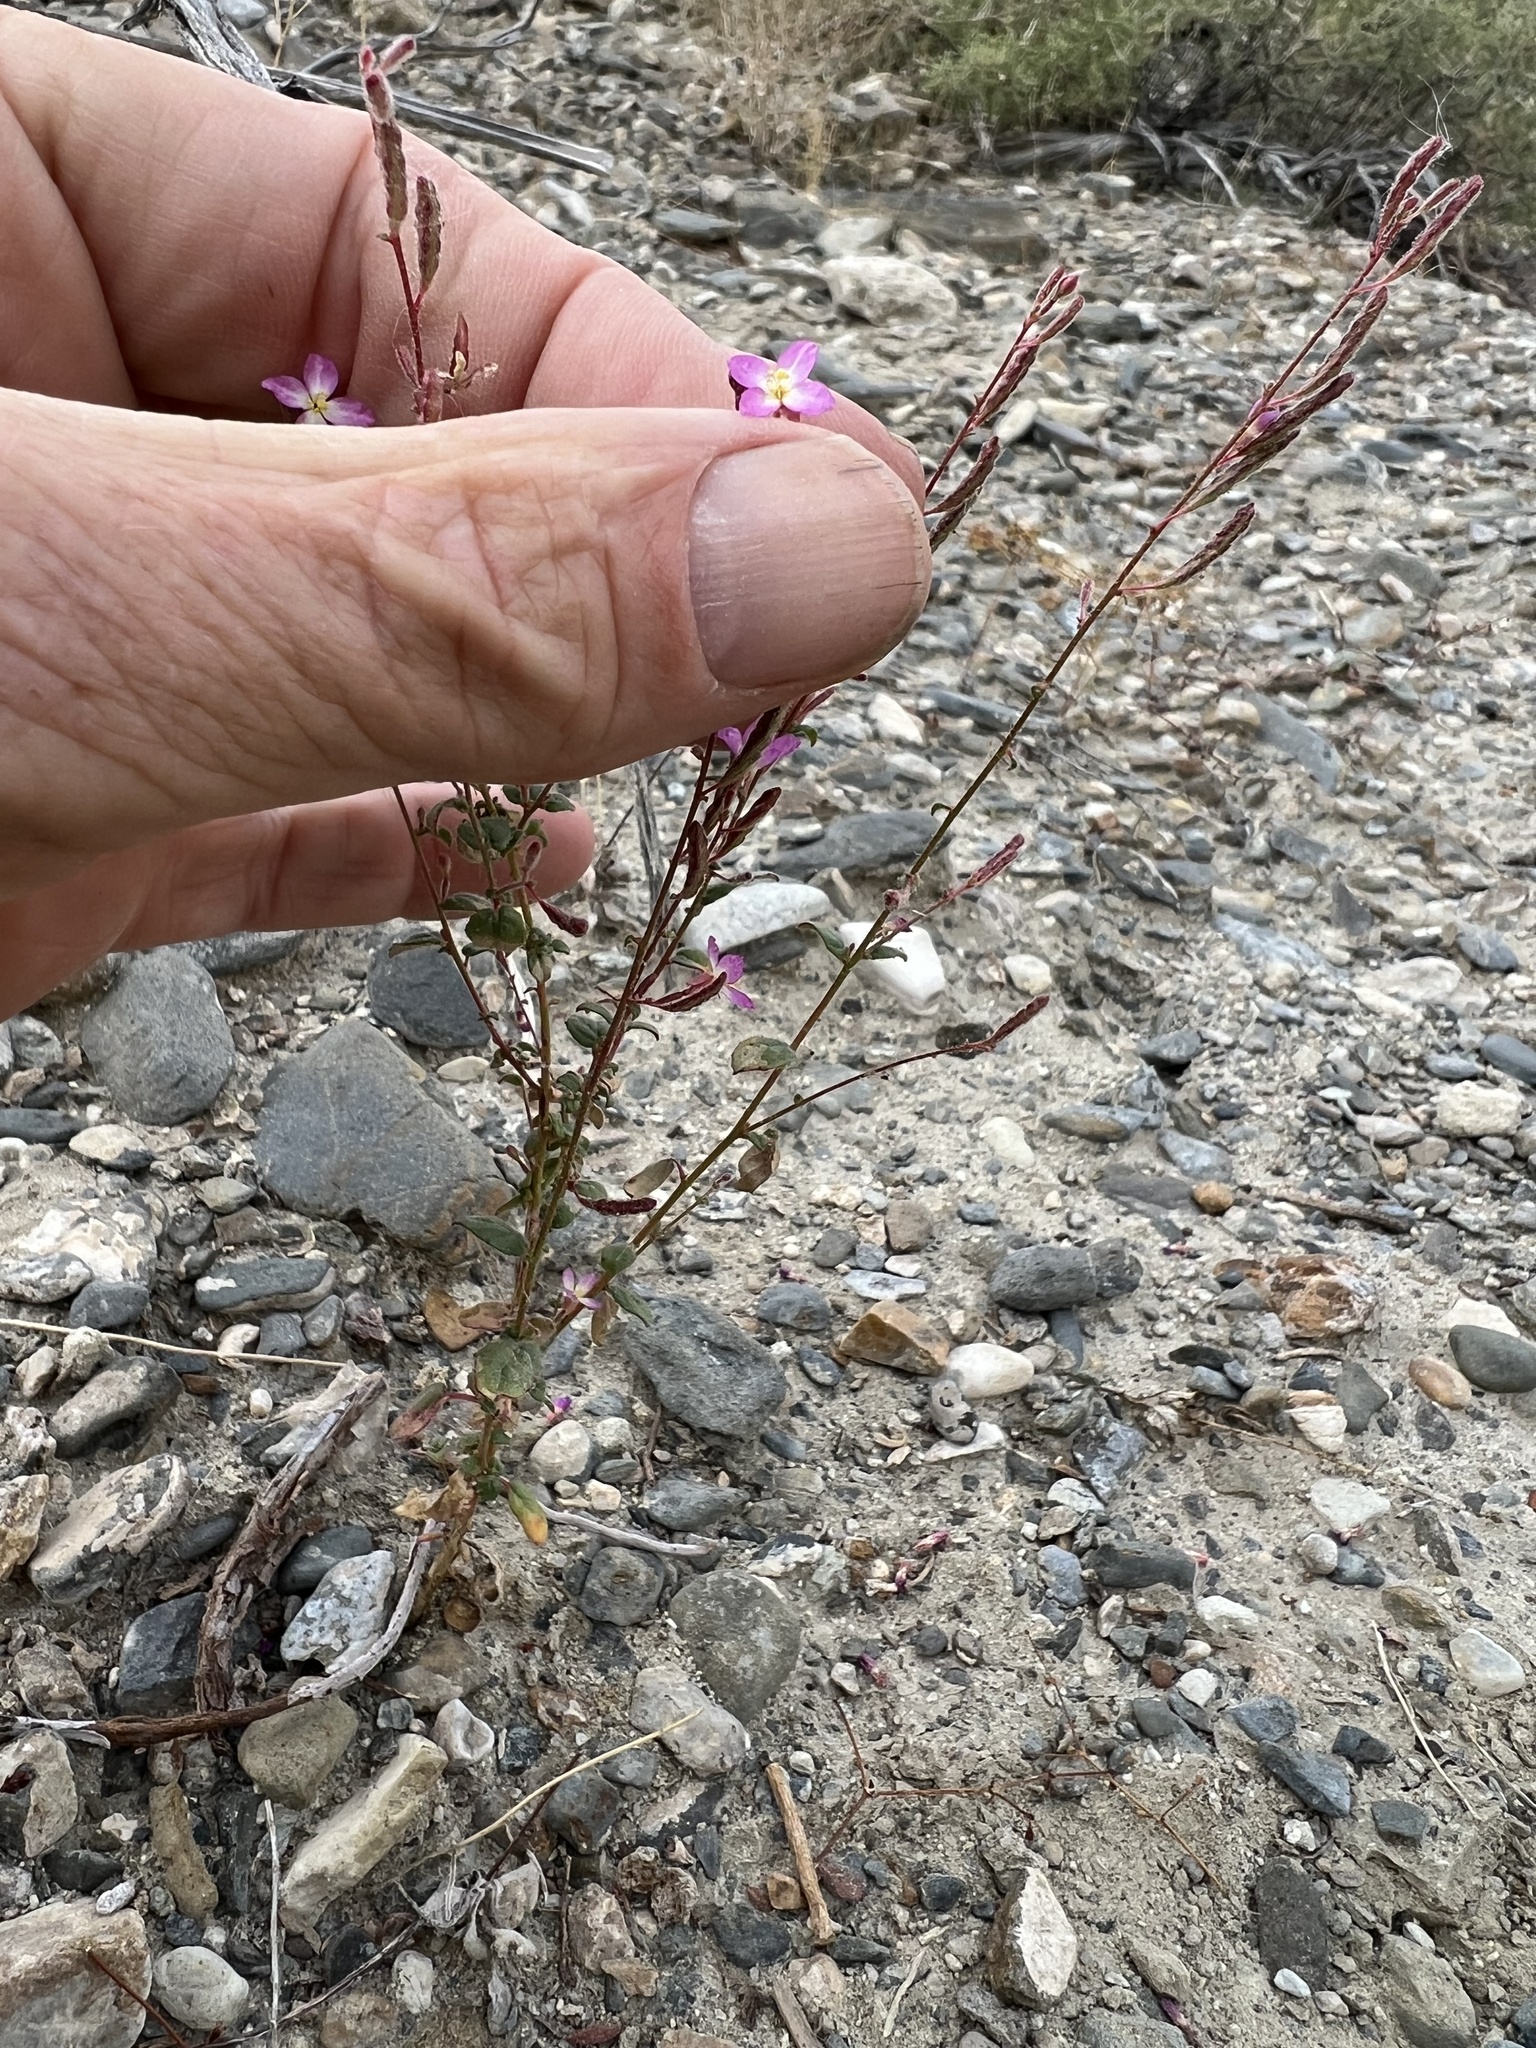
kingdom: Plantae
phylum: Tracheophyta
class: Magnoliopsida
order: Myrtales
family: Onagraceae
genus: Chylismia
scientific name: Chylismia heterochroma
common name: Shockley's evening primrose
